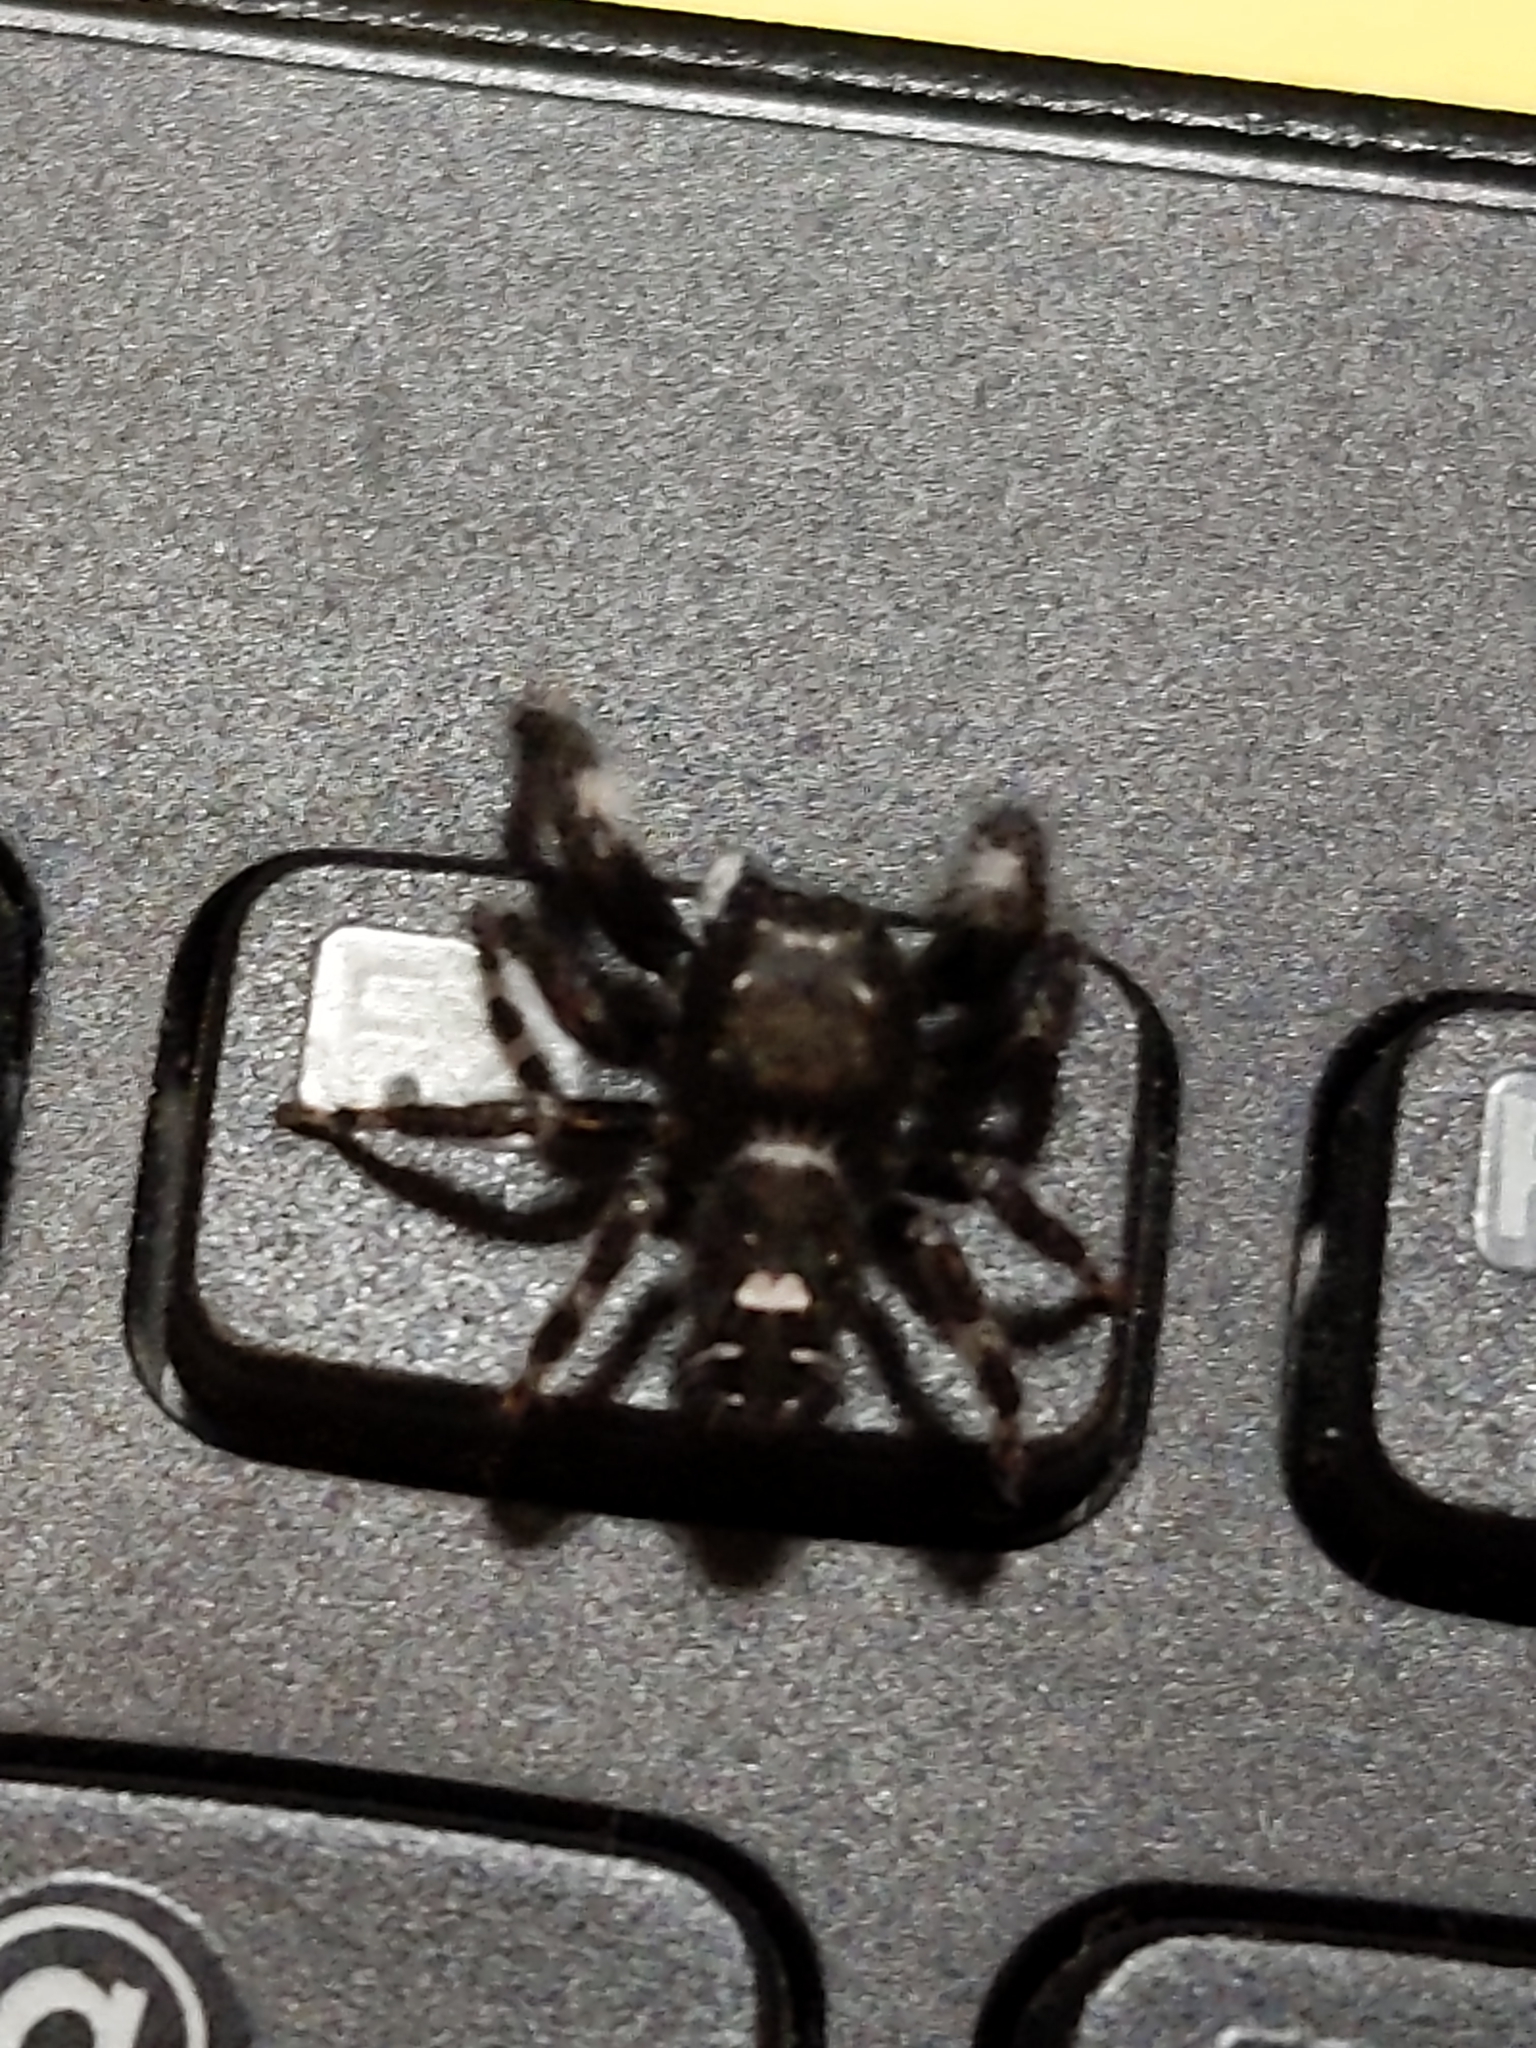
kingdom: Animalia
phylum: Arthropoda
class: Arachnida
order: Araneae
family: Salticidae
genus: Phidippus
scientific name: Phidippus audax
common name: Bold jumper
